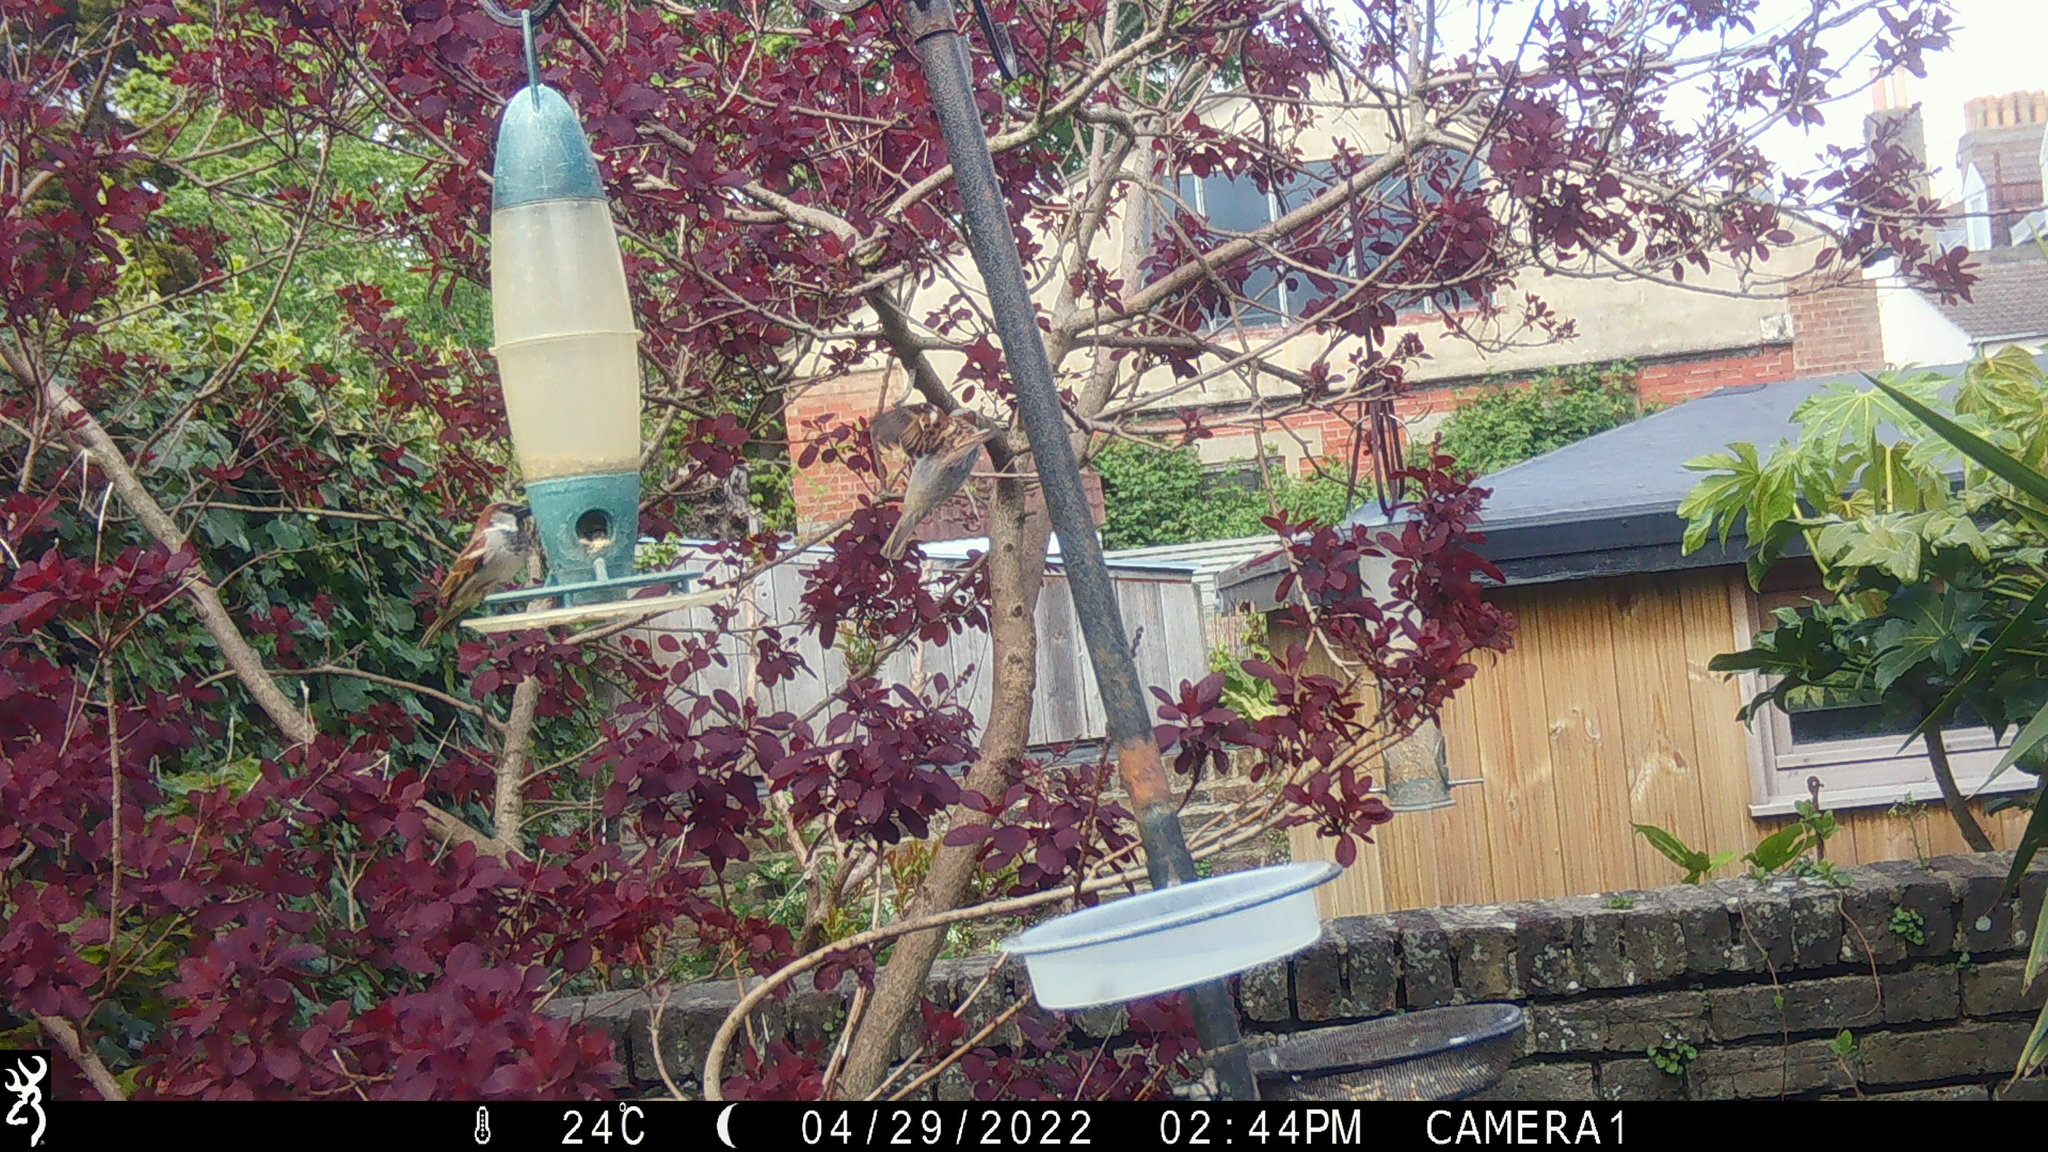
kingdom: Animalia
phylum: Chordata
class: Aves
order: Passeriformes
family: Passeridae
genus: Passer
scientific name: Passer domesticus
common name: House sparrow
